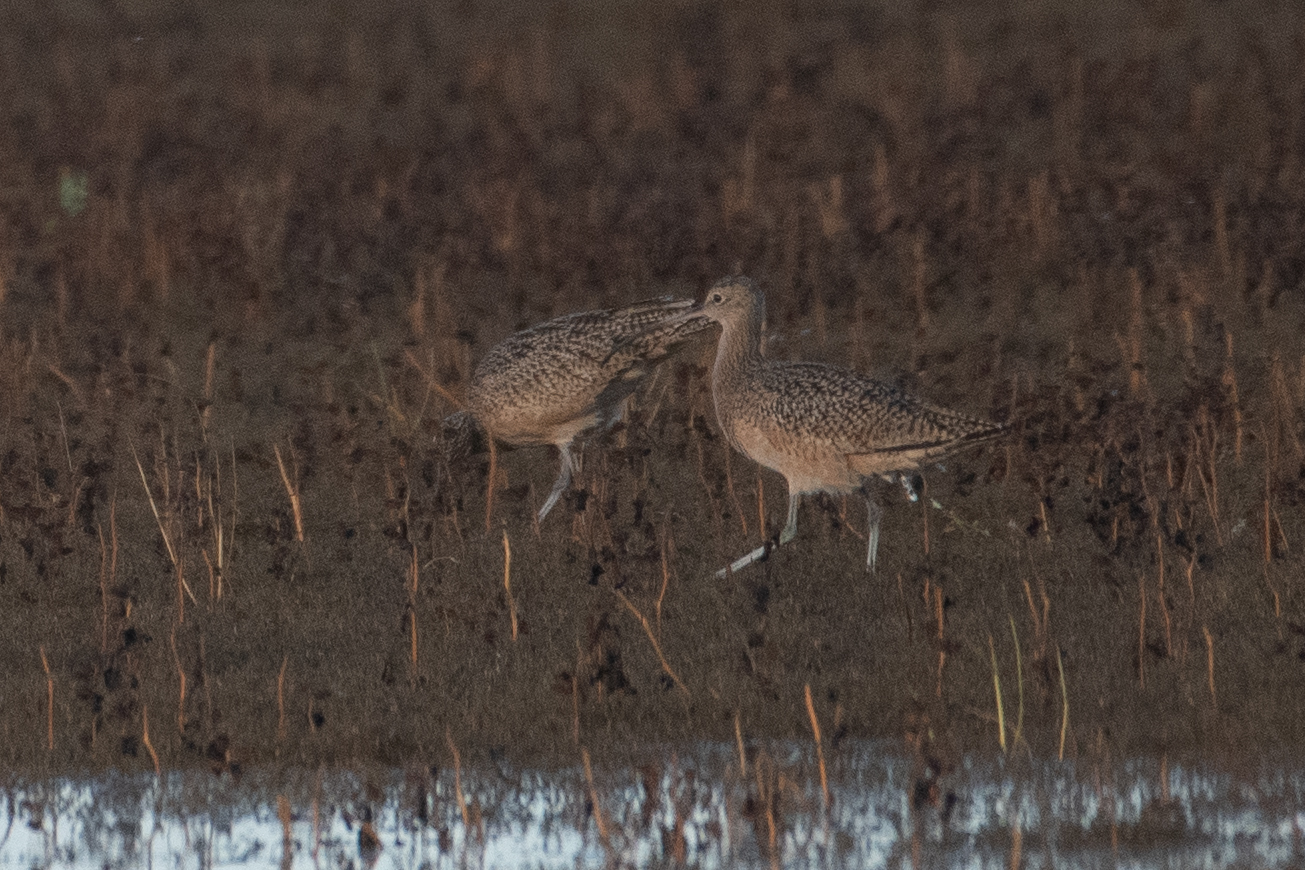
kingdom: Animalia
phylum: Chordata
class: Aves
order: Charadriiformes
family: Scolopacidae
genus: Numenius
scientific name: Numenius americanus
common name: Long-billed curlew
